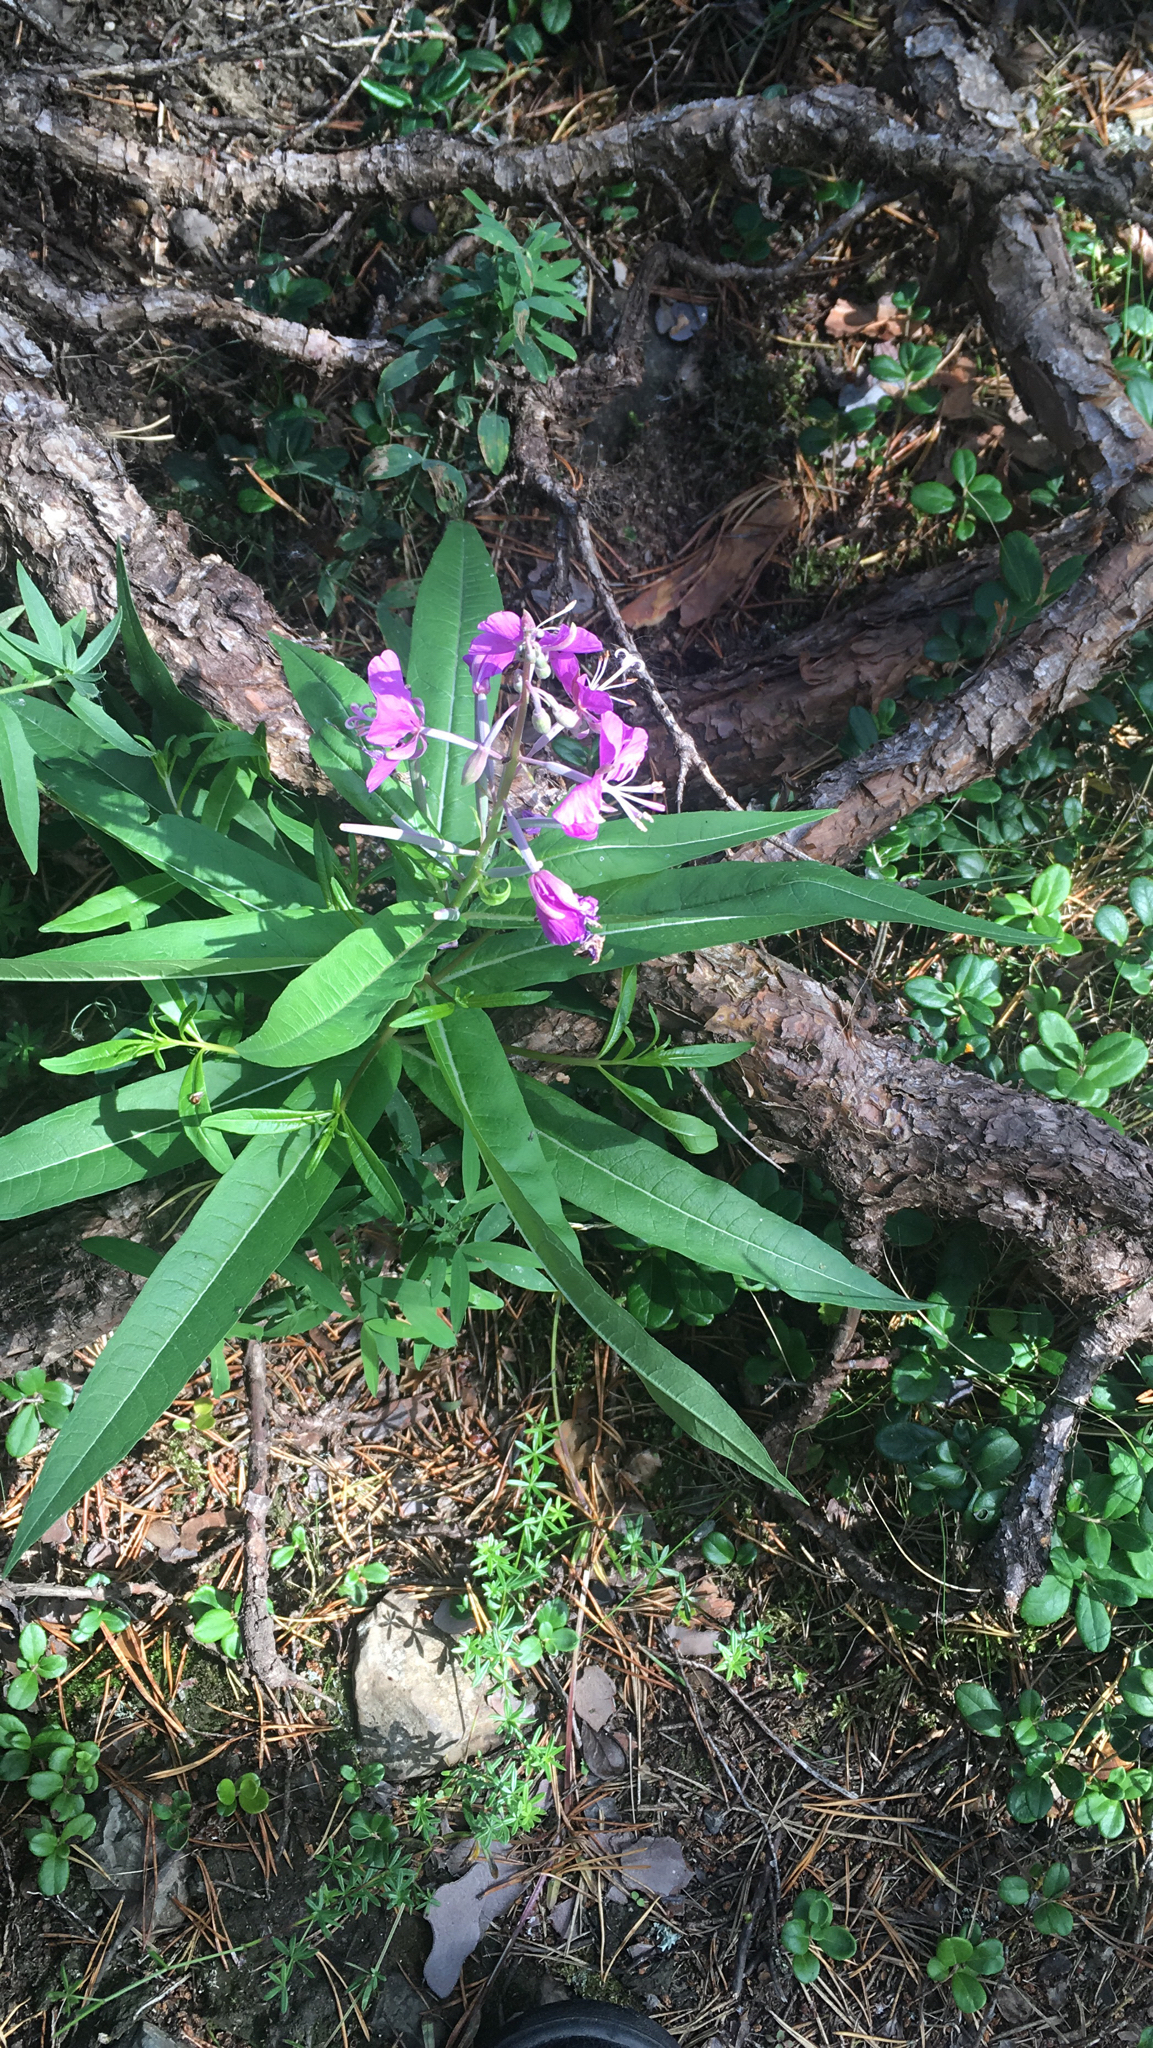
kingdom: Plantae
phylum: Tracheophyta
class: Magnoliopsida
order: Myrtales
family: Onagraceae
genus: Chamaenerion
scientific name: Chamaenerion angustifolium
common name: Fireweed
